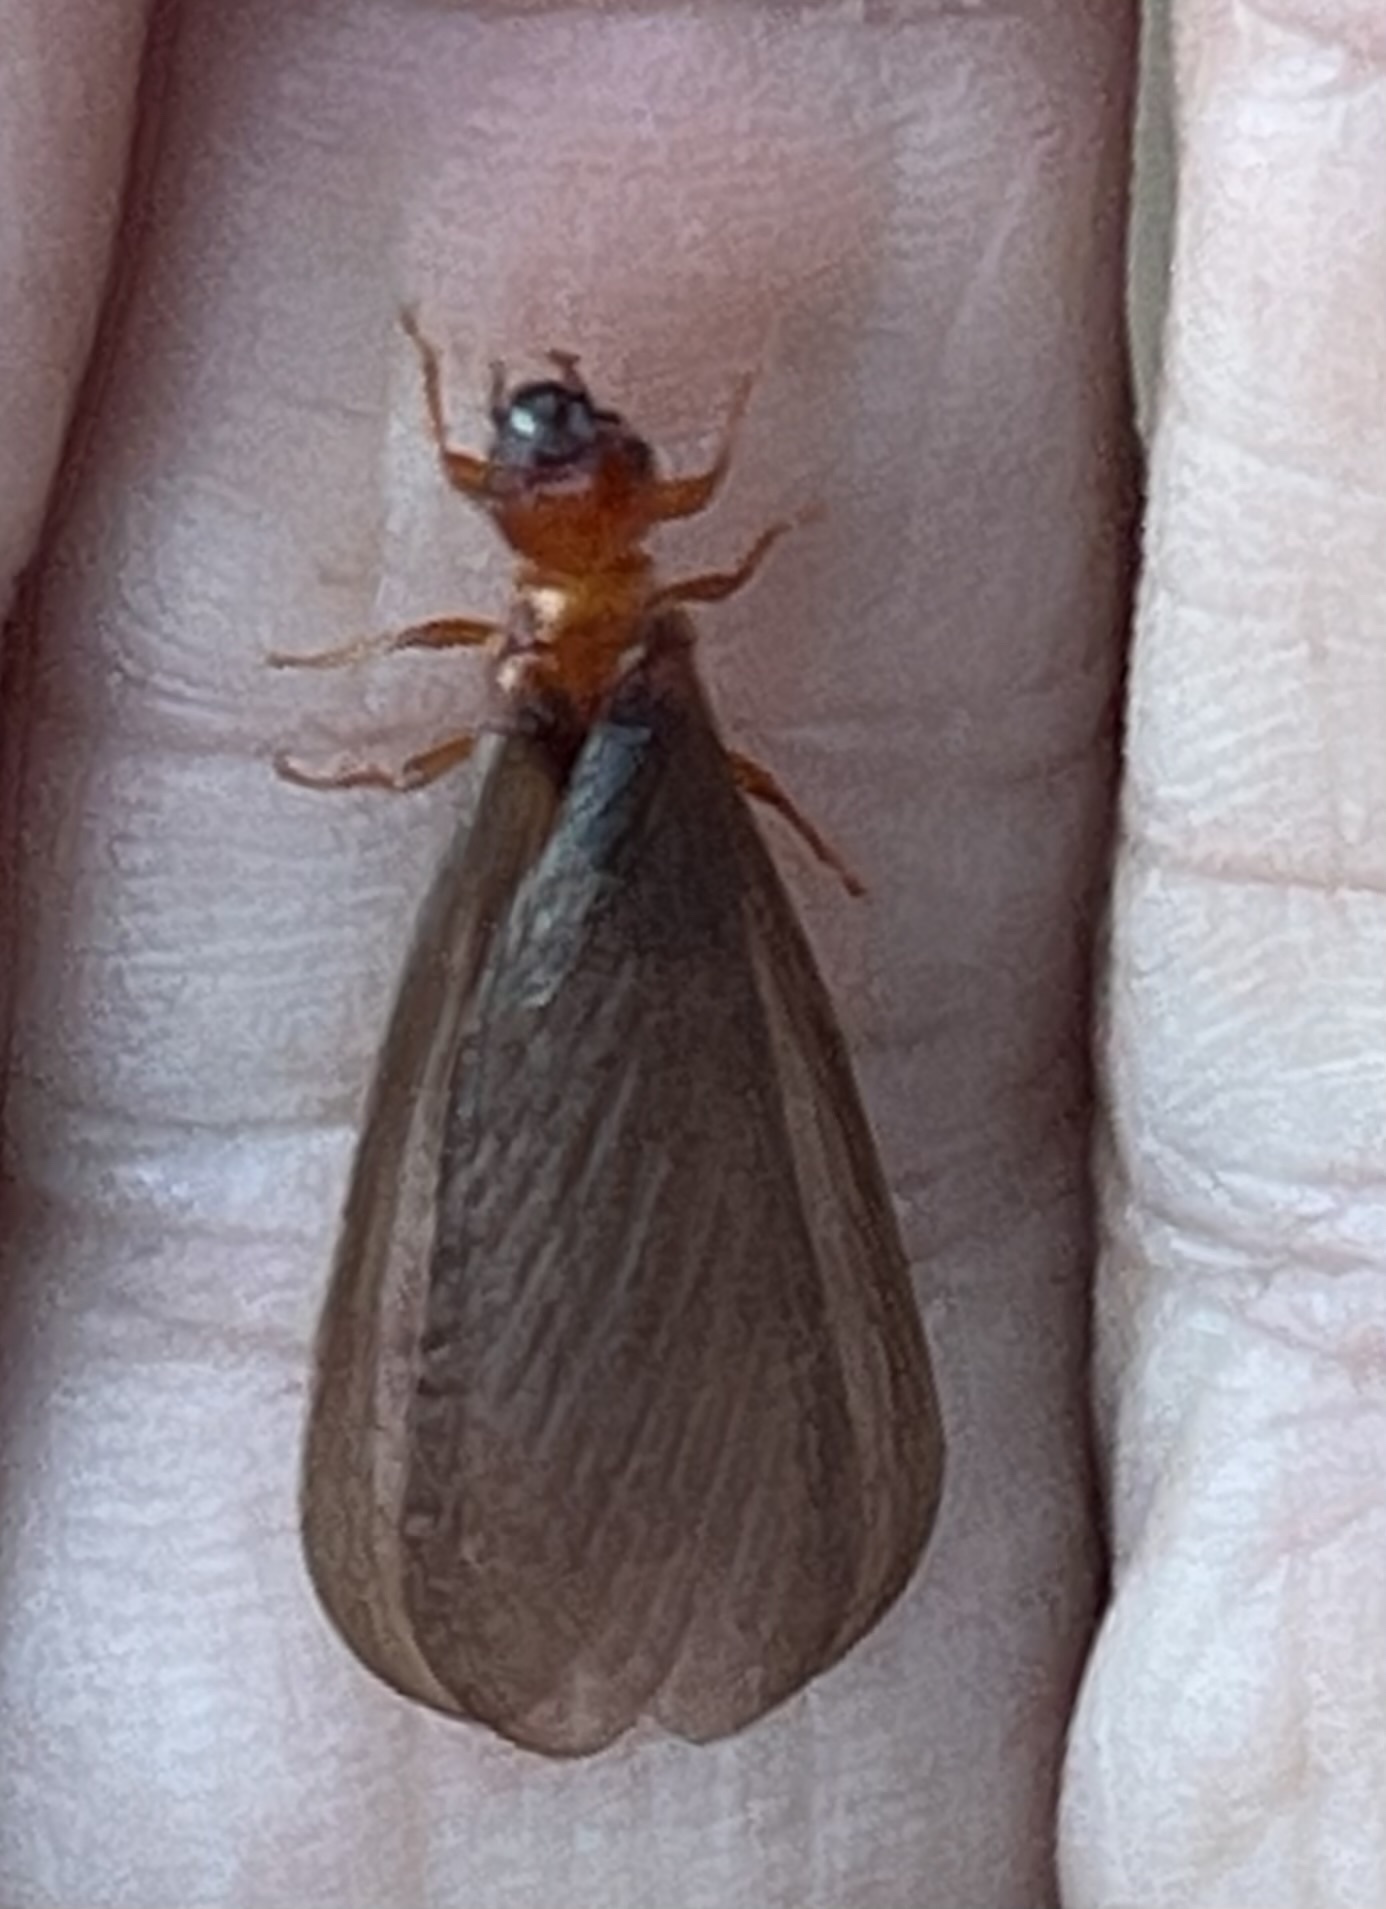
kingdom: Animalia
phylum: Arthropoda
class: Insecta
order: Blattodea
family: Archotermopsidae
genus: Zootermopsis
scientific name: Zootermopsis angusticollis
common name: Rottenwood termite
